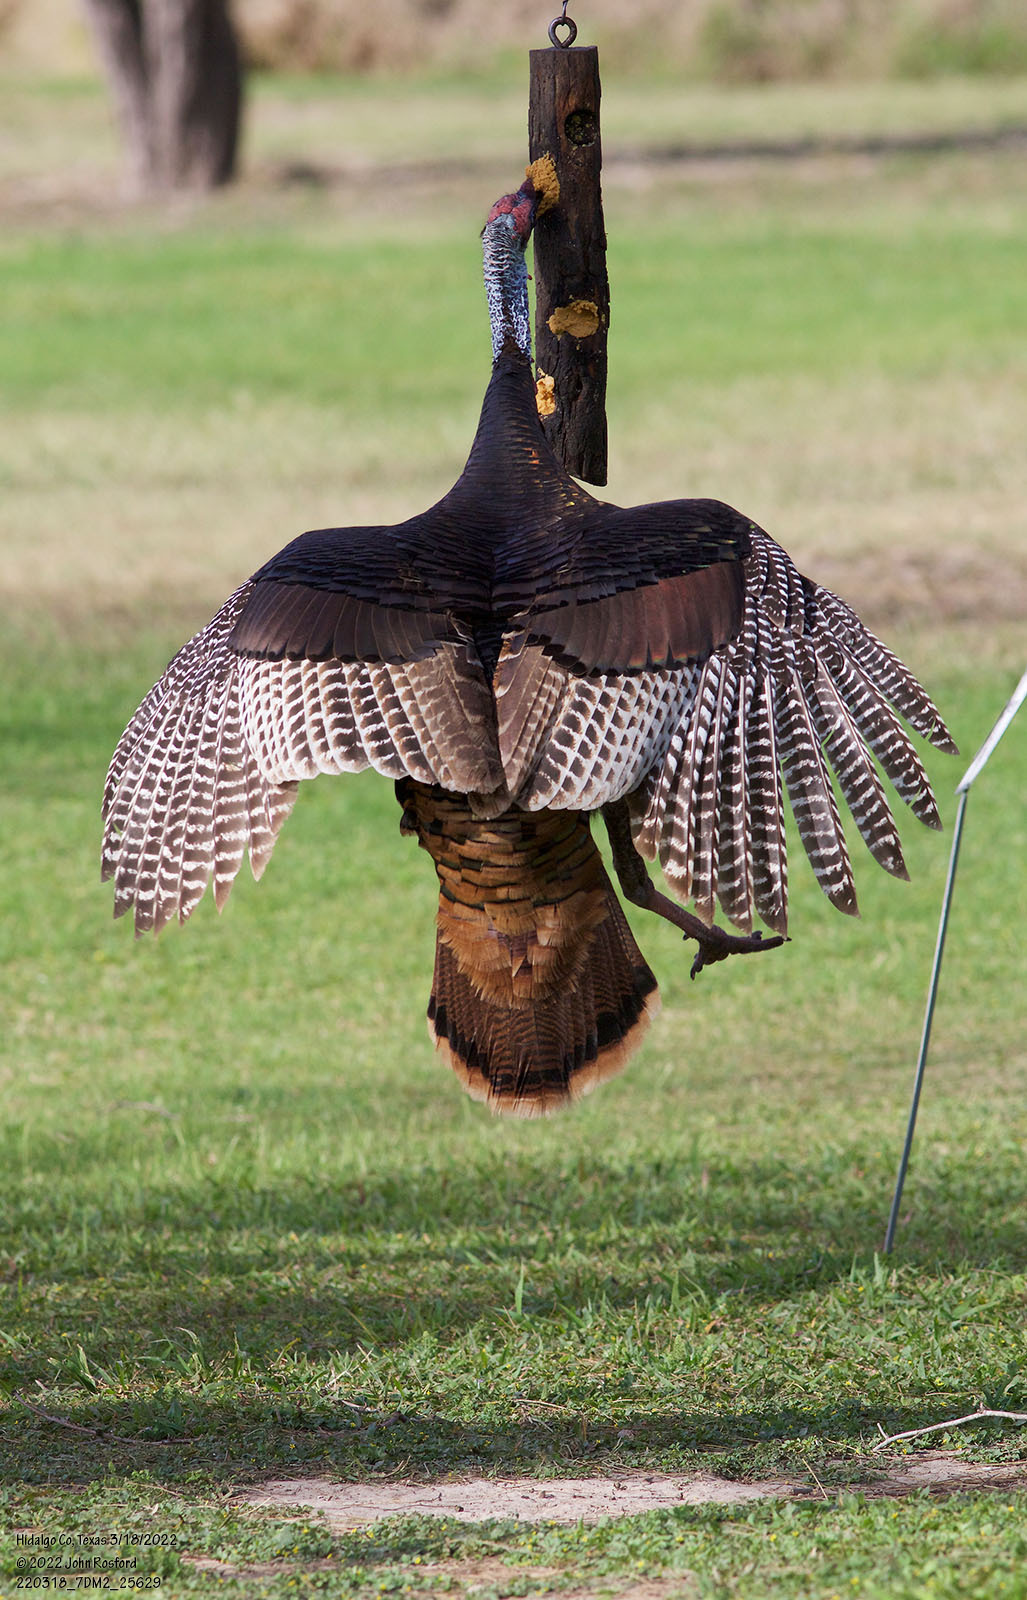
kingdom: Animalia
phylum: Chordata
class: Aves
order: Galliformes
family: Phasianidae
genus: Meleagris
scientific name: Meleagris gallopavo
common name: Wild turkey
